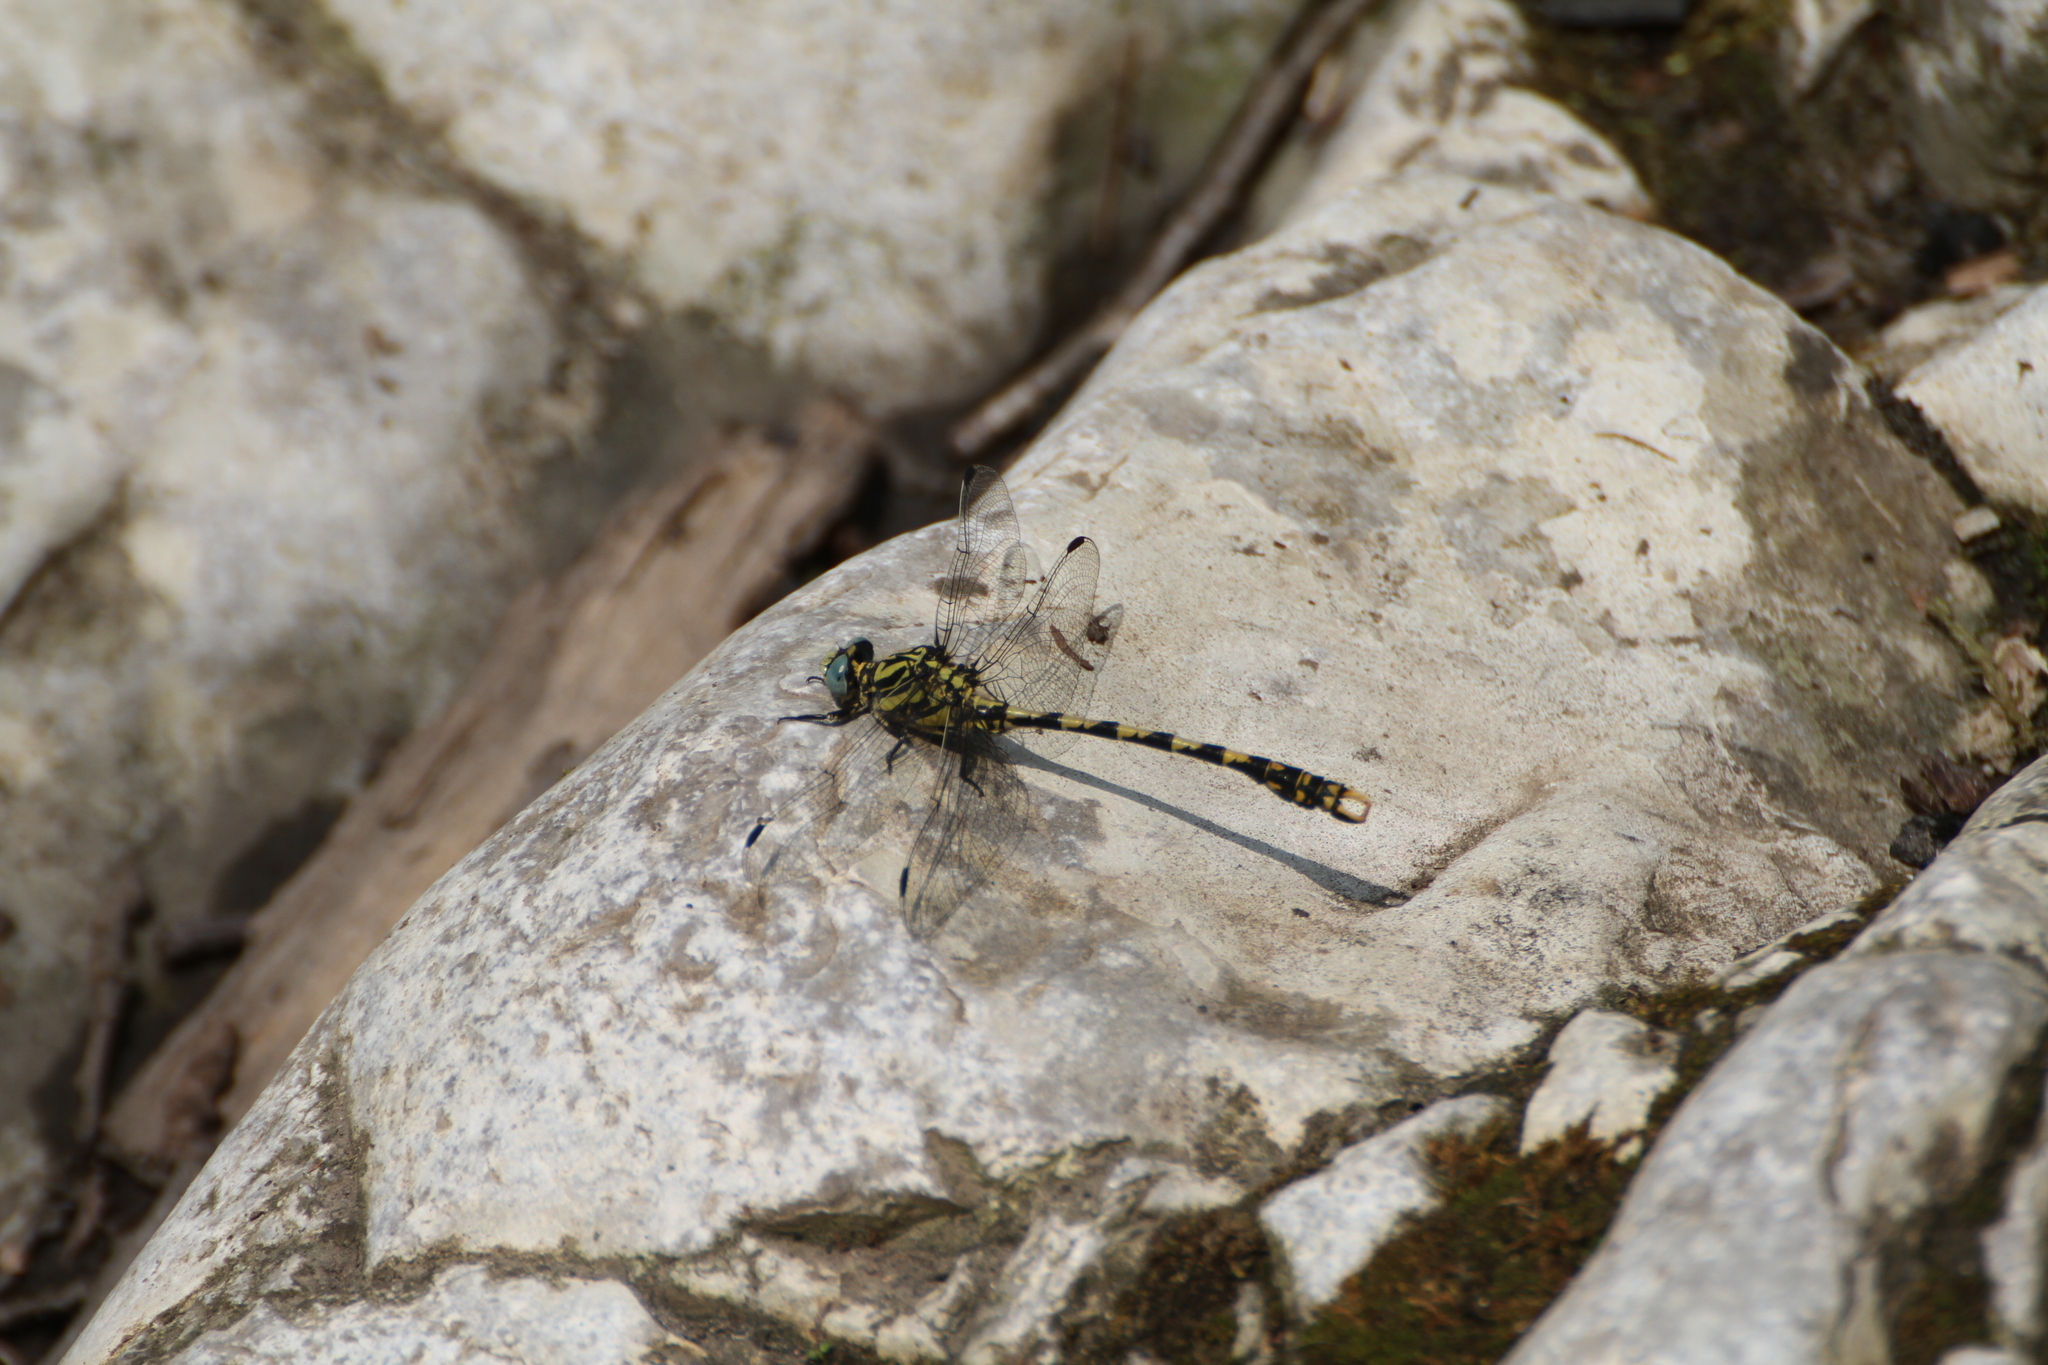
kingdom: Animalia
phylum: Arthropoda
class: Insecta
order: Odonata
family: Gomphidae
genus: Onychogomphus
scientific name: Onychogomphus uncatus
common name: Large pincertail
